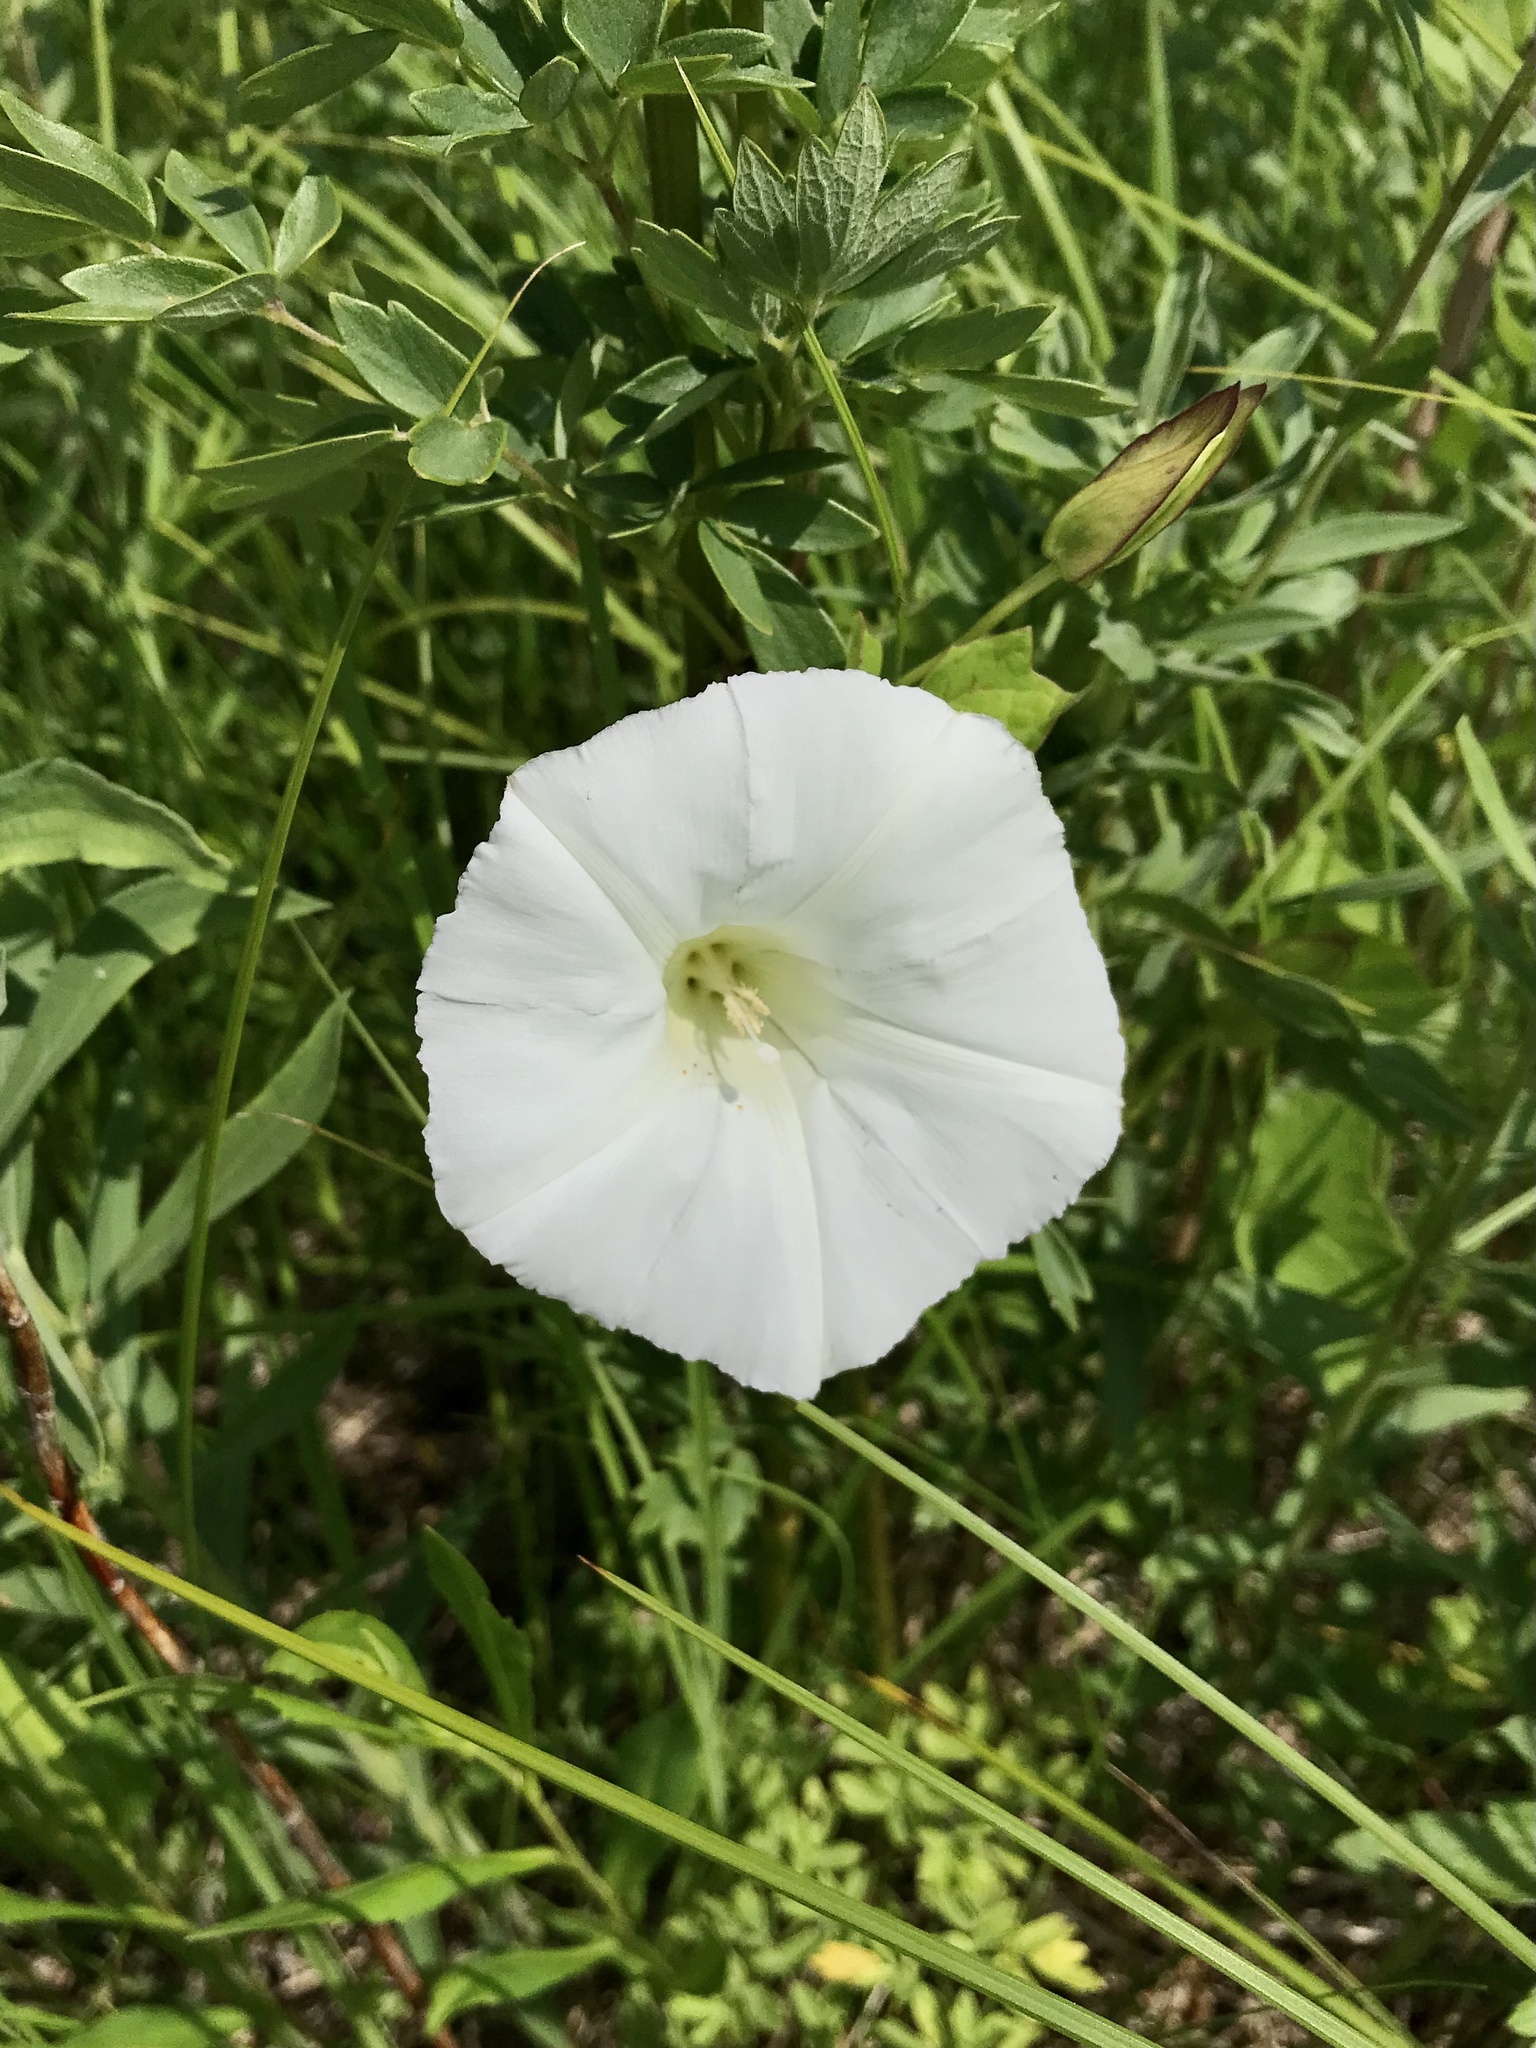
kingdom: Plantae
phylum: Tracheophyta
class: Magnoliopsida
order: Solanales
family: Convolvulaceae
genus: Calystegia
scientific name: Calystegia sepium
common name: Hedge bindweed
